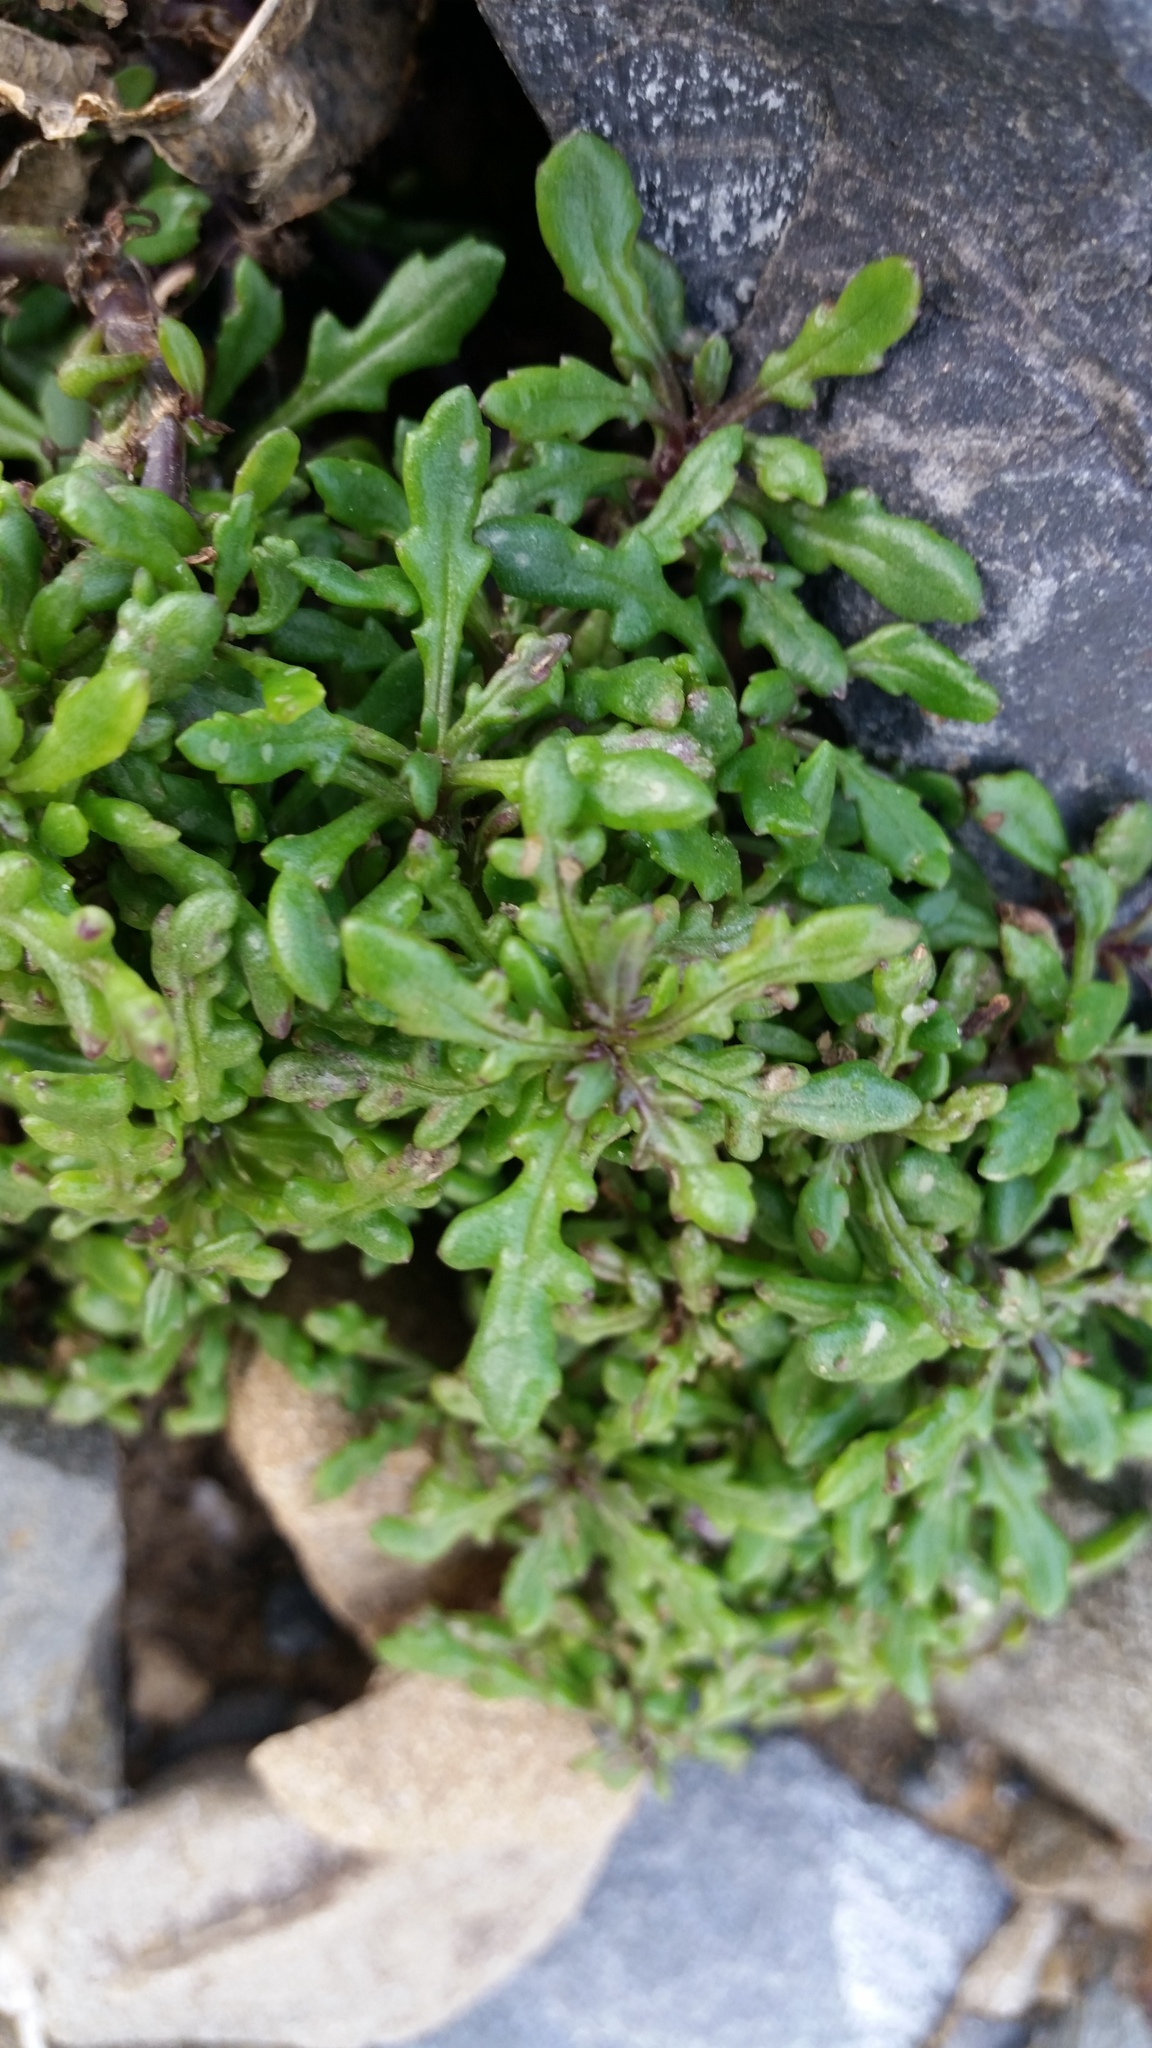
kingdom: Plantae
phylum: Tracheophyta
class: Magnoliopsida
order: Asterales
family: Asteraceae
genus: Senecio
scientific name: Senecio lautus
